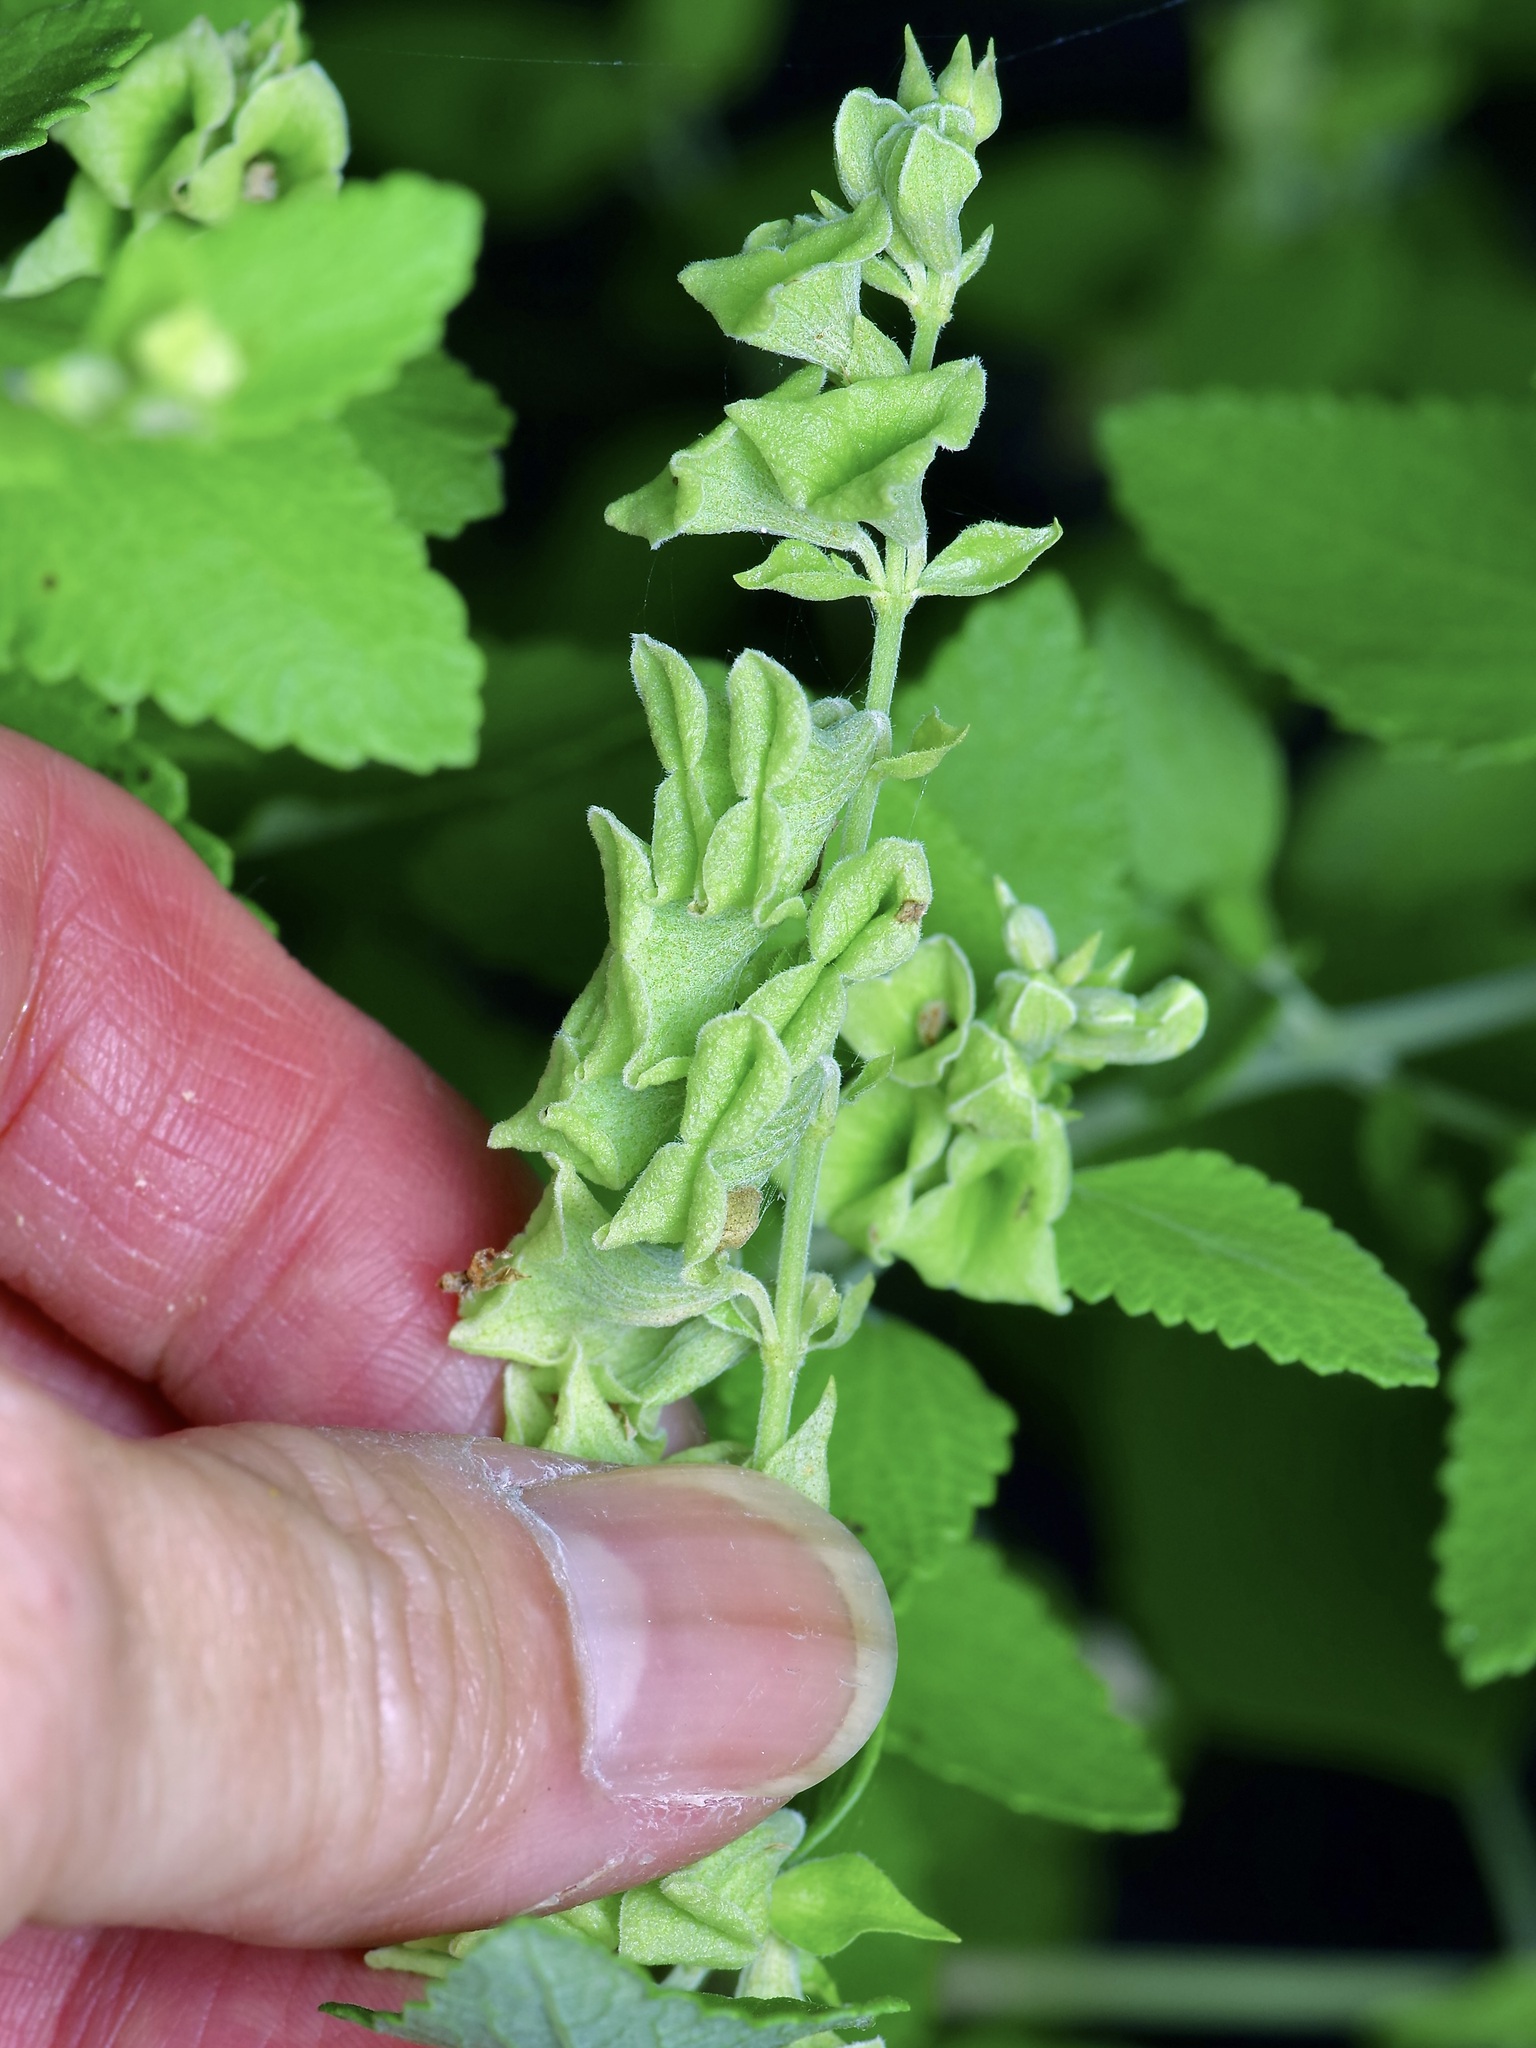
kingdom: Plantae
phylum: Tracheophyta
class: Magnoliopsida
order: Lamiales
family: Lamiaceae
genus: Salvia
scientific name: Salvia ballotiflora
